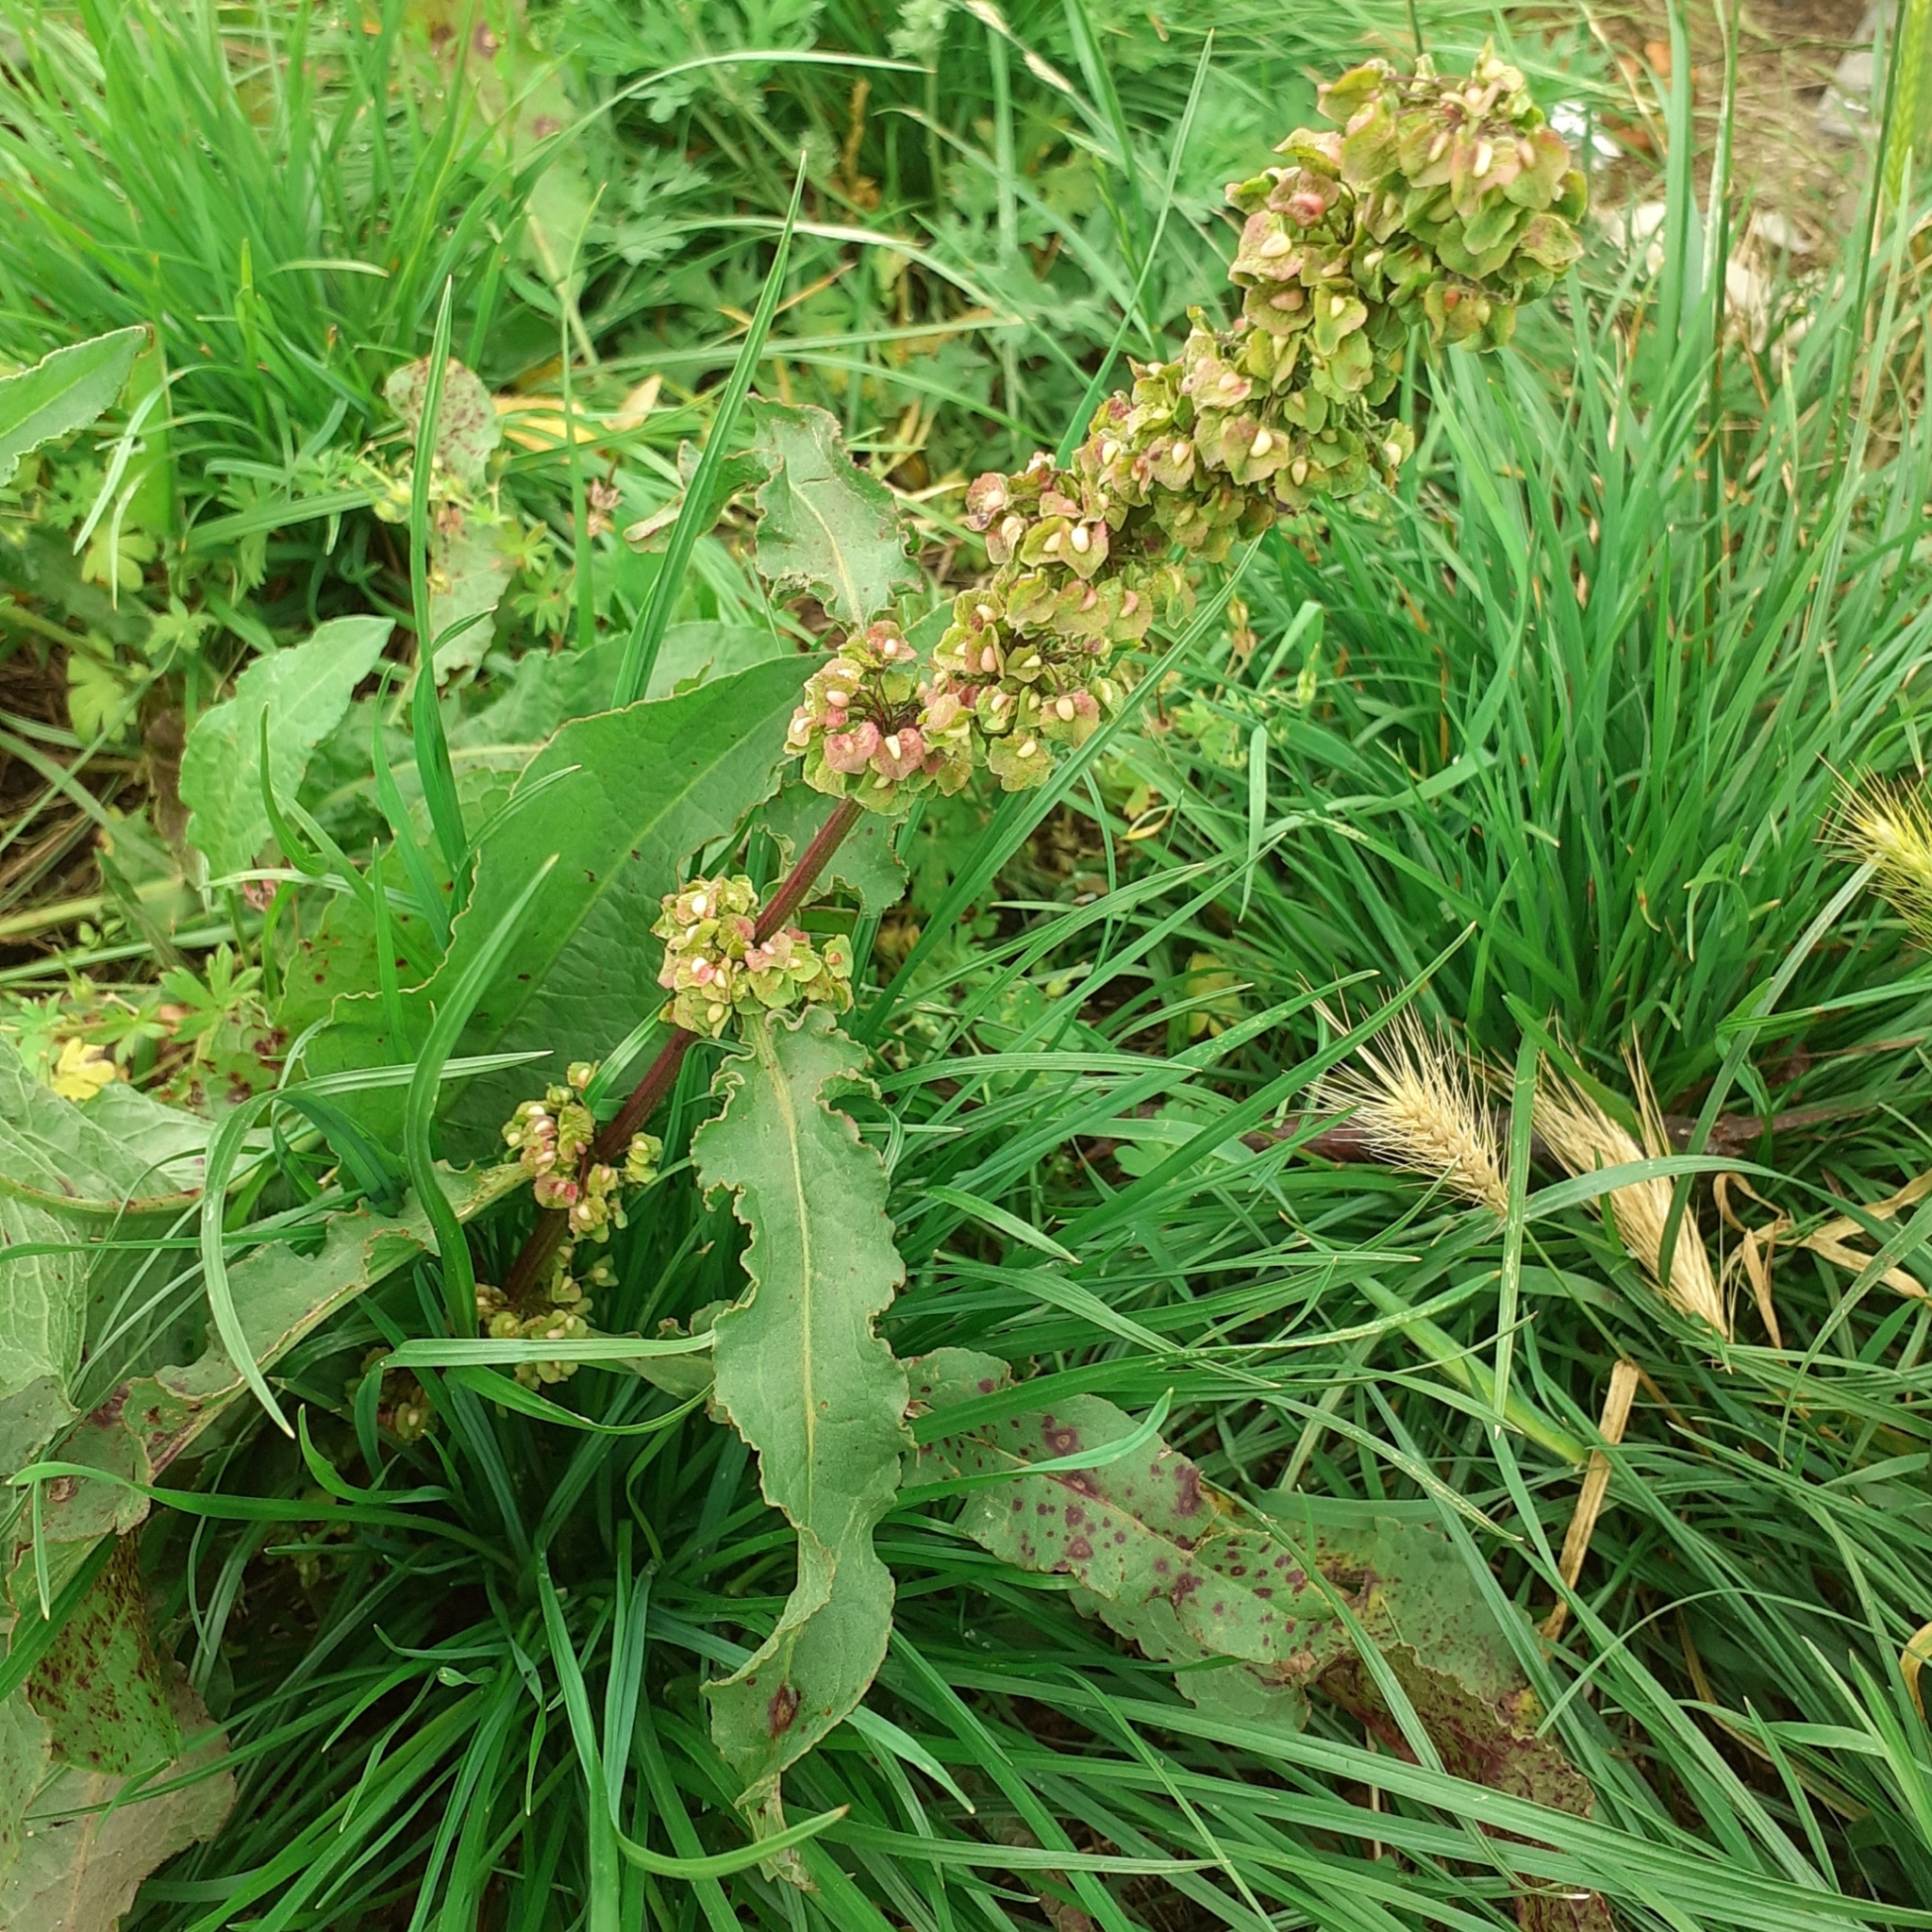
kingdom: Plantae
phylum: Tracheophyta
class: Magnoliopsida
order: Caryophyllales
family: Polygonaceae
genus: Rumex
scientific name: Rumex crispus
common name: Curled dock
